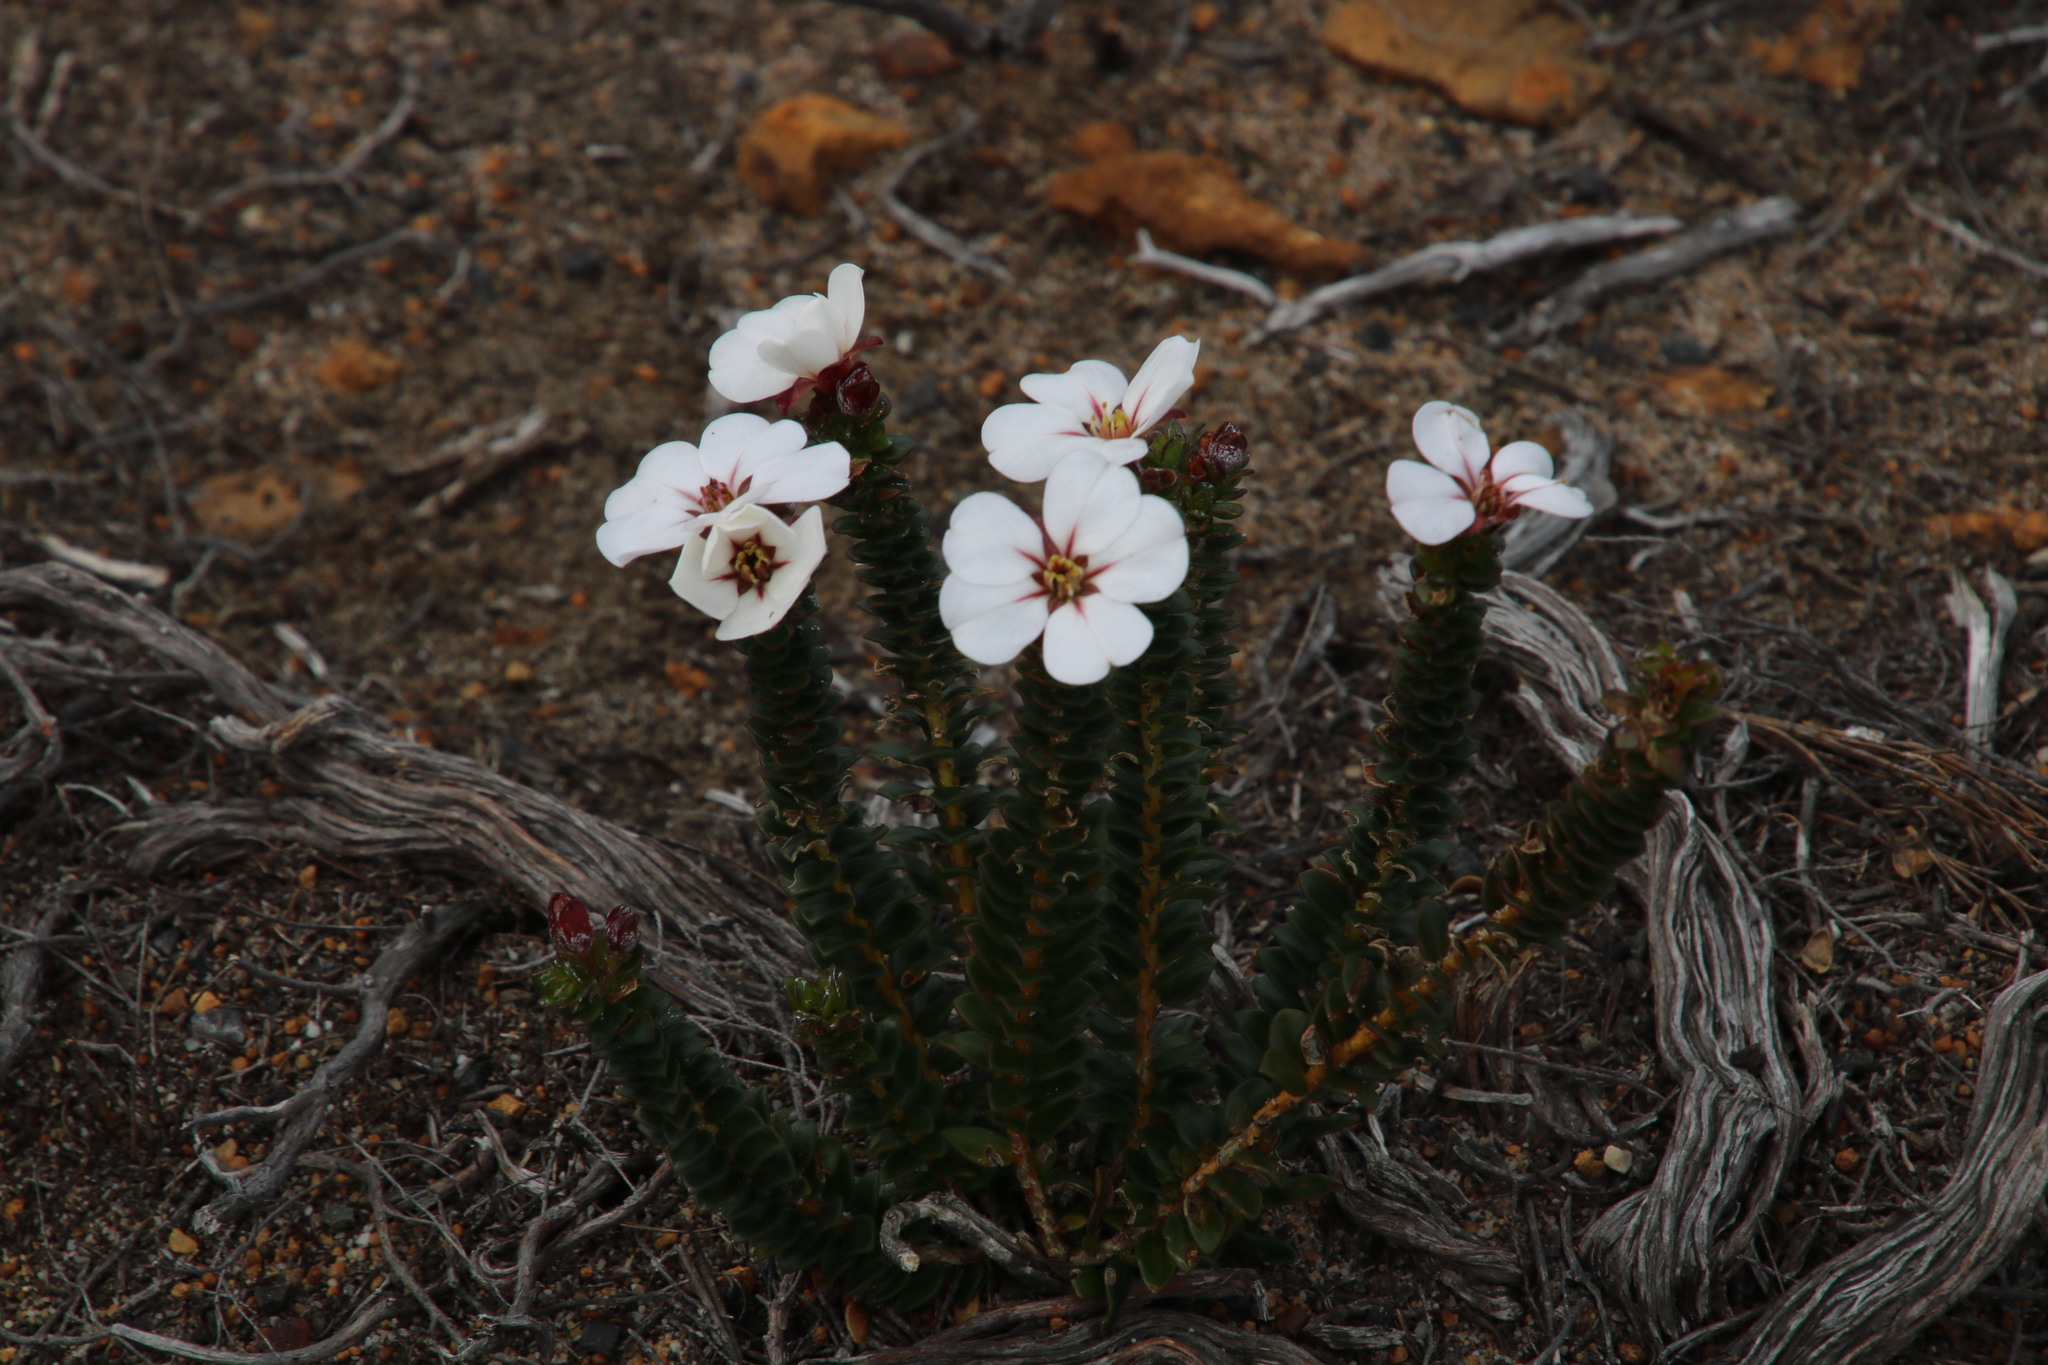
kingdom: Plantae
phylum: Tracheophyta
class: Magnoliopsida
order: Sapindales
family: Rutaceae
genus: Adenandra
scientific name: Adenandra villosa
